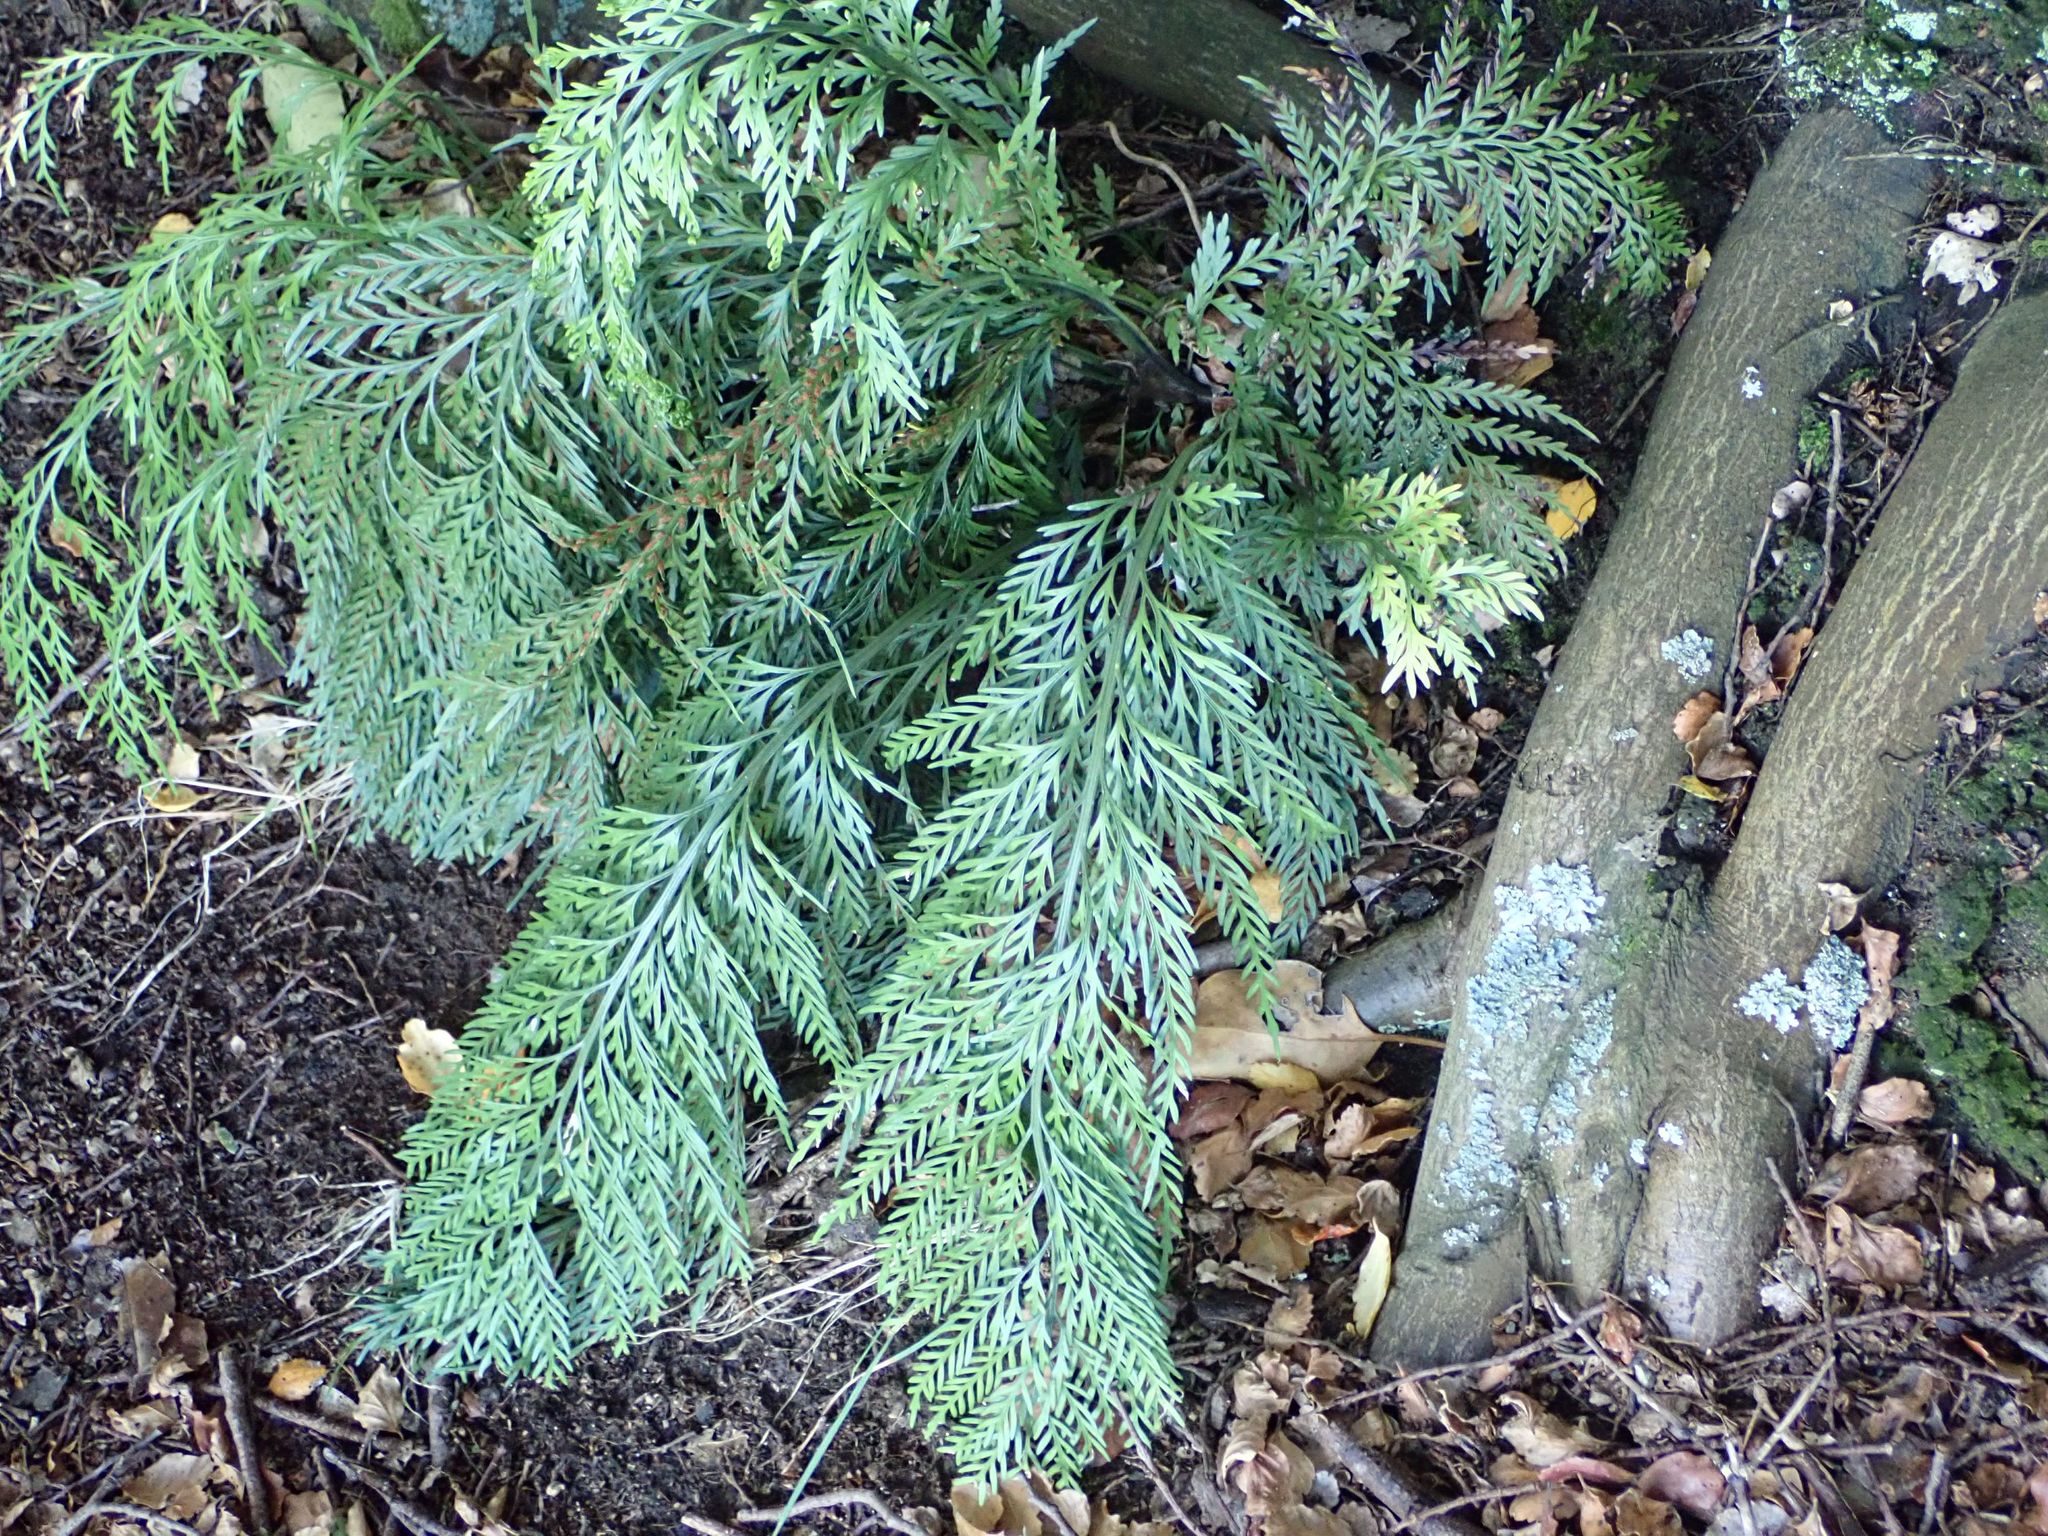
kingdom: Plantae
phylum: Tracheophyta
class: Polypodiopsida
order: Polypodiales
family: Aspleniaceae
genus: Asplenium
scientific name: Asplenium appendiculatum
